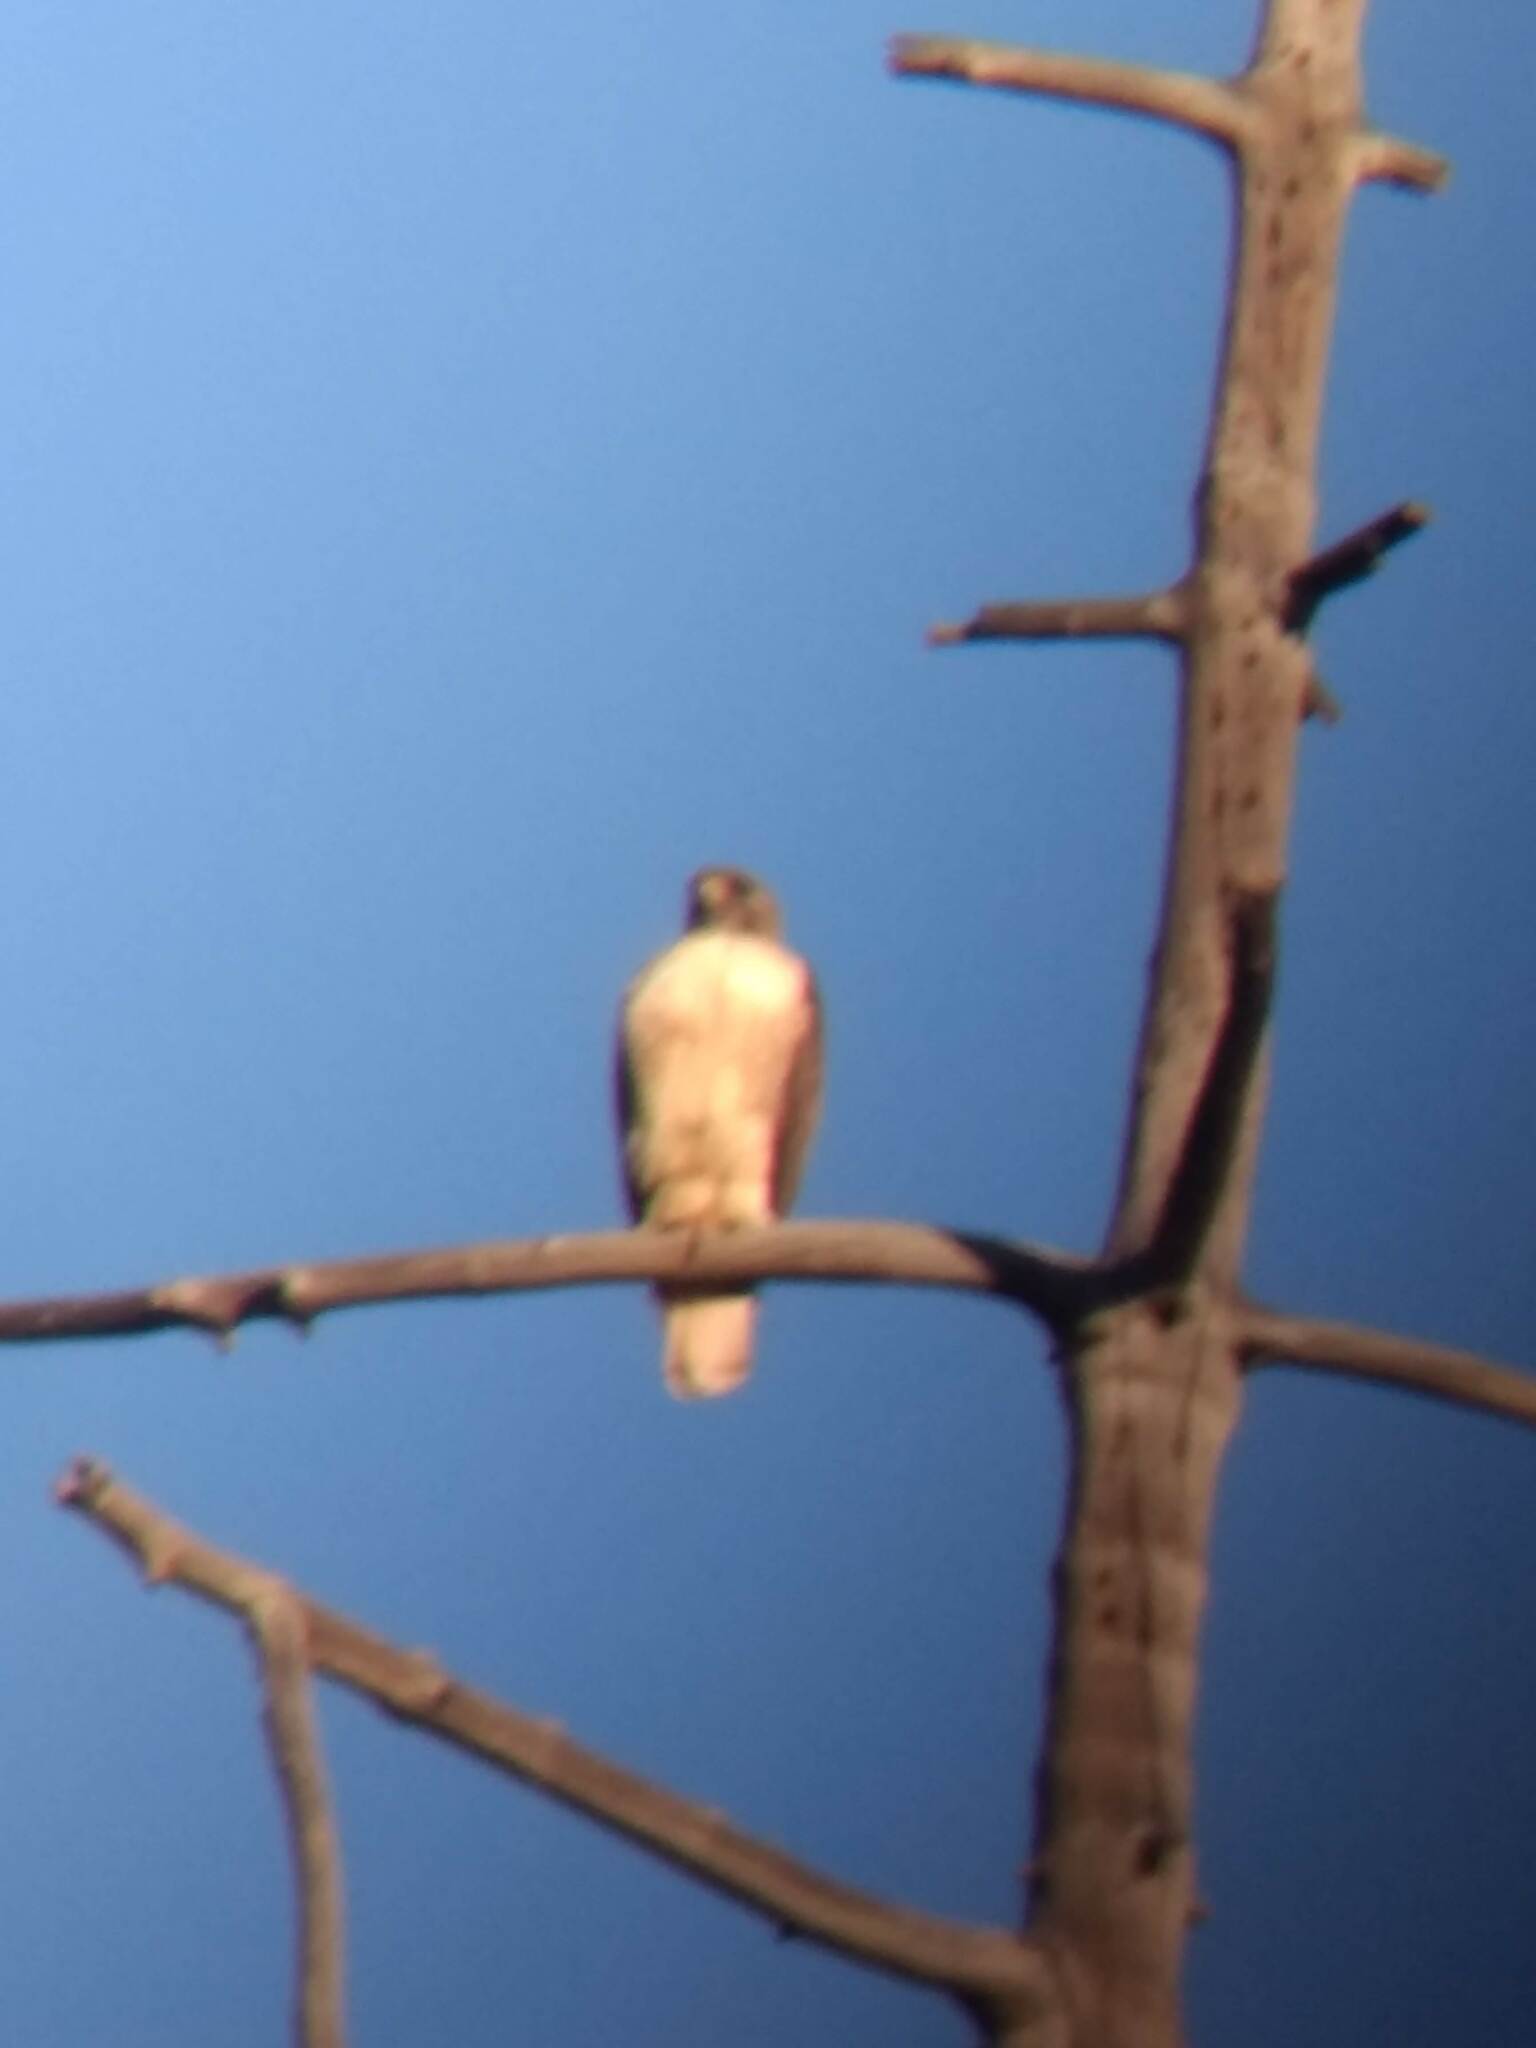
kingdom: Animalia
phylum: Chordata
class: Aves
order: Accipitriformes
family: Accipitridae
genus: Buteo
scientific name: Buteo jamaicensis
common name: Red-tailed hawk
